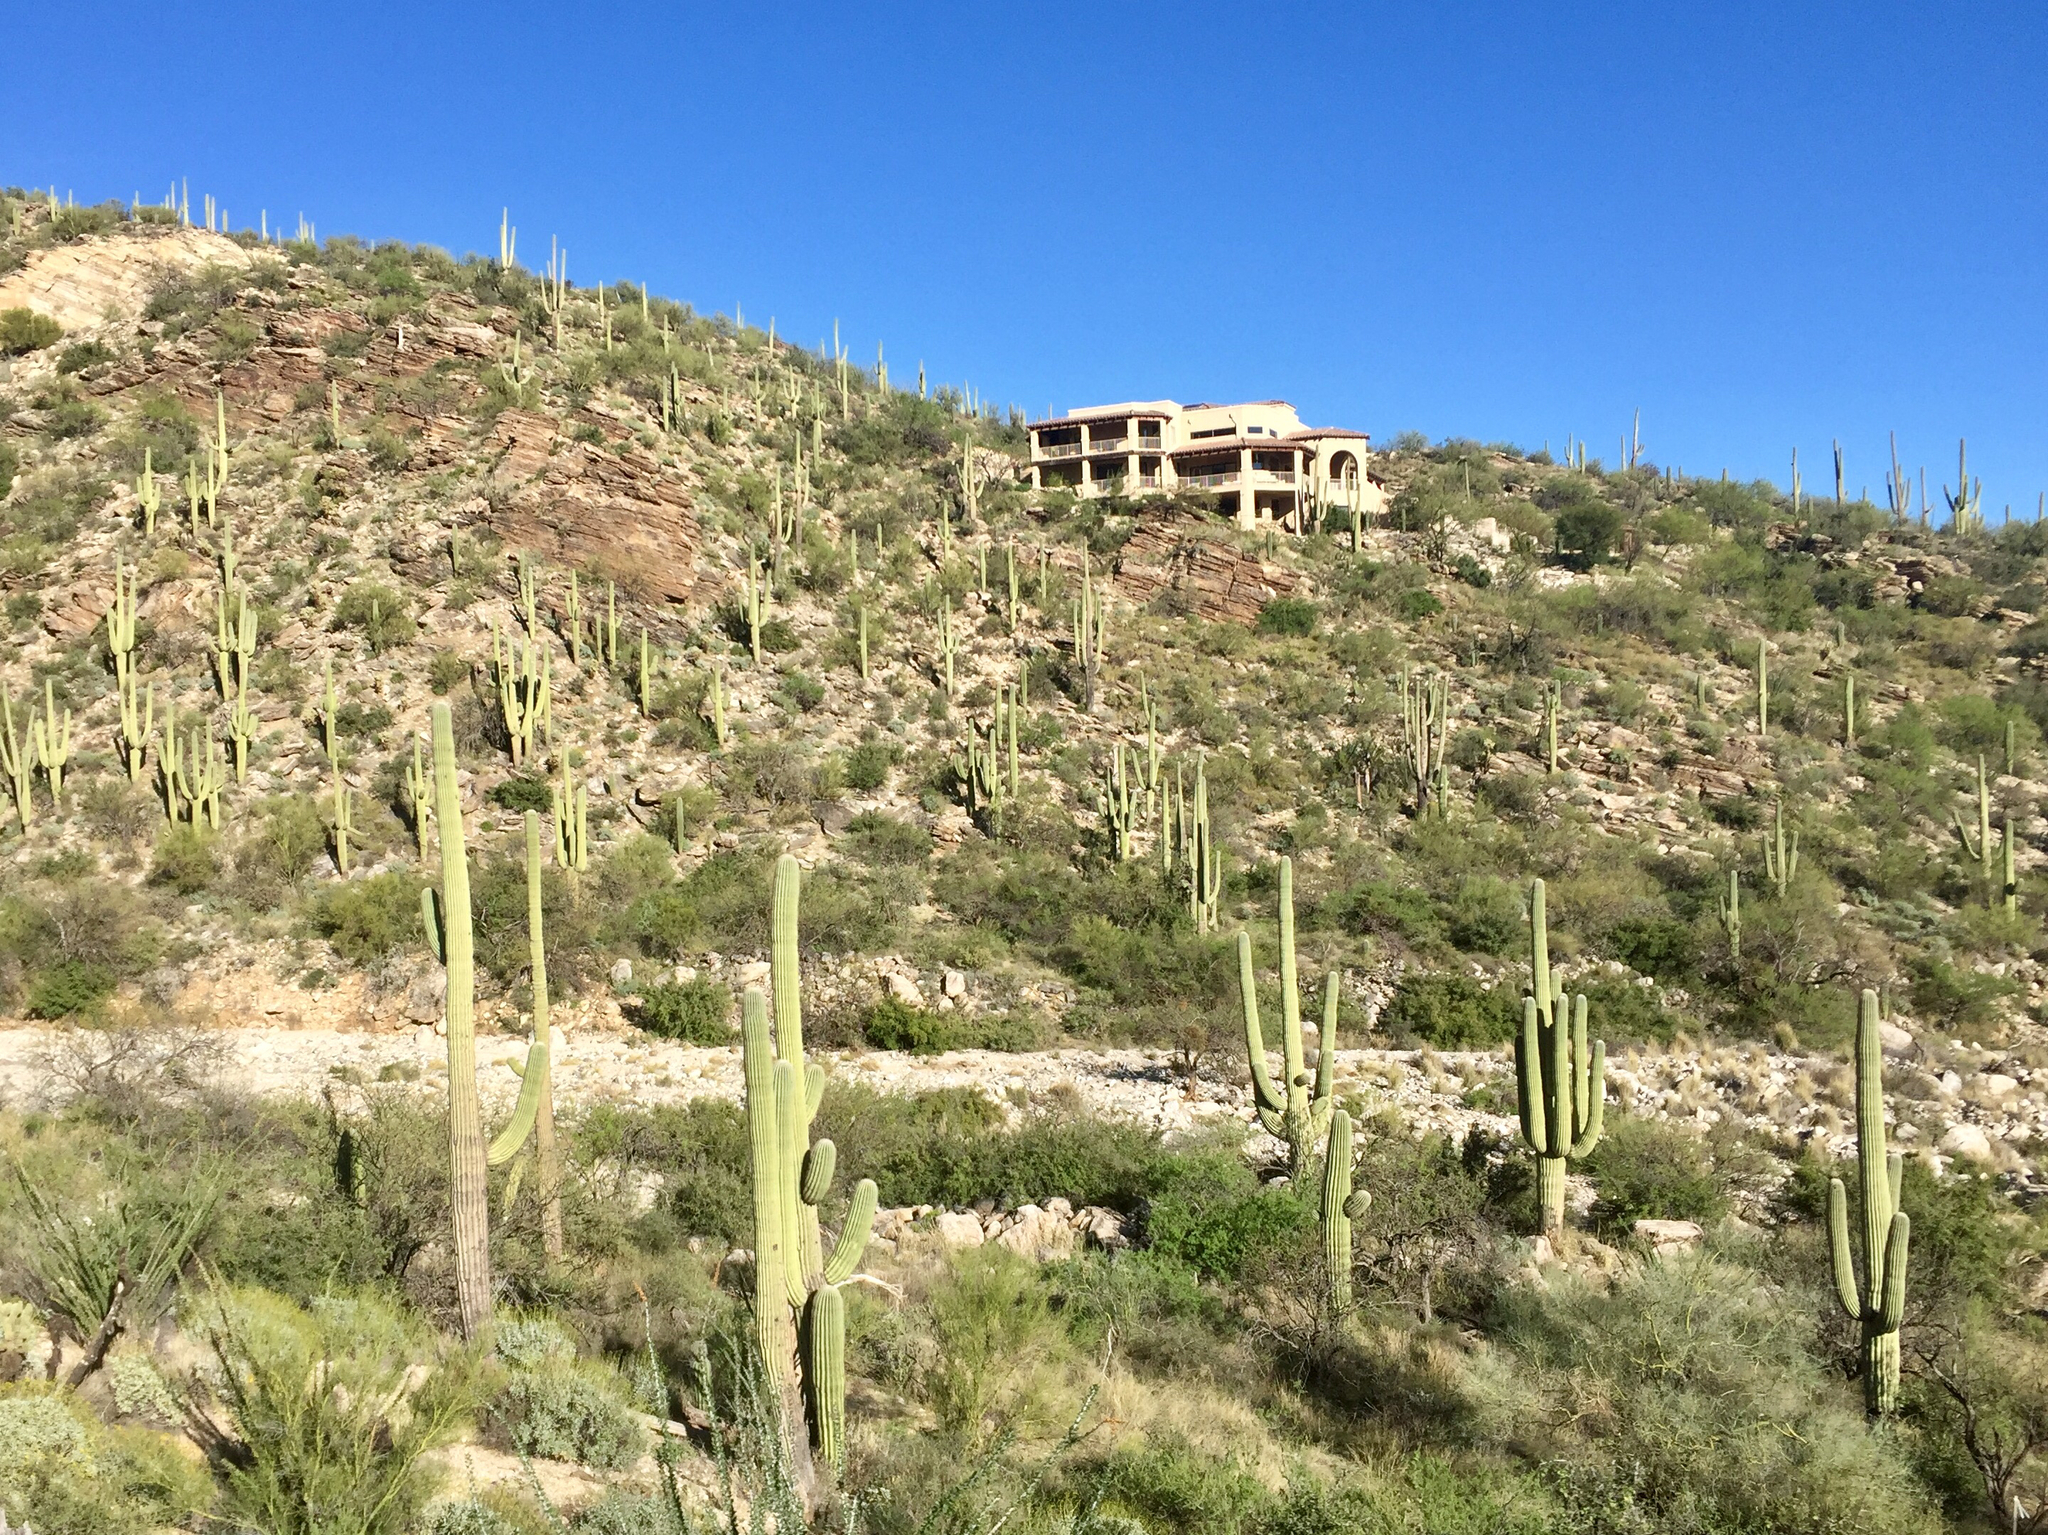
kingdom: Plantae
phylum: Tracheophyta
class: Magnoliopsida
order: Caryophyllales
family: Cactaceae
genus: Carnegiea
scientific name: Carnegiea gigantea
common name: Saguaro
